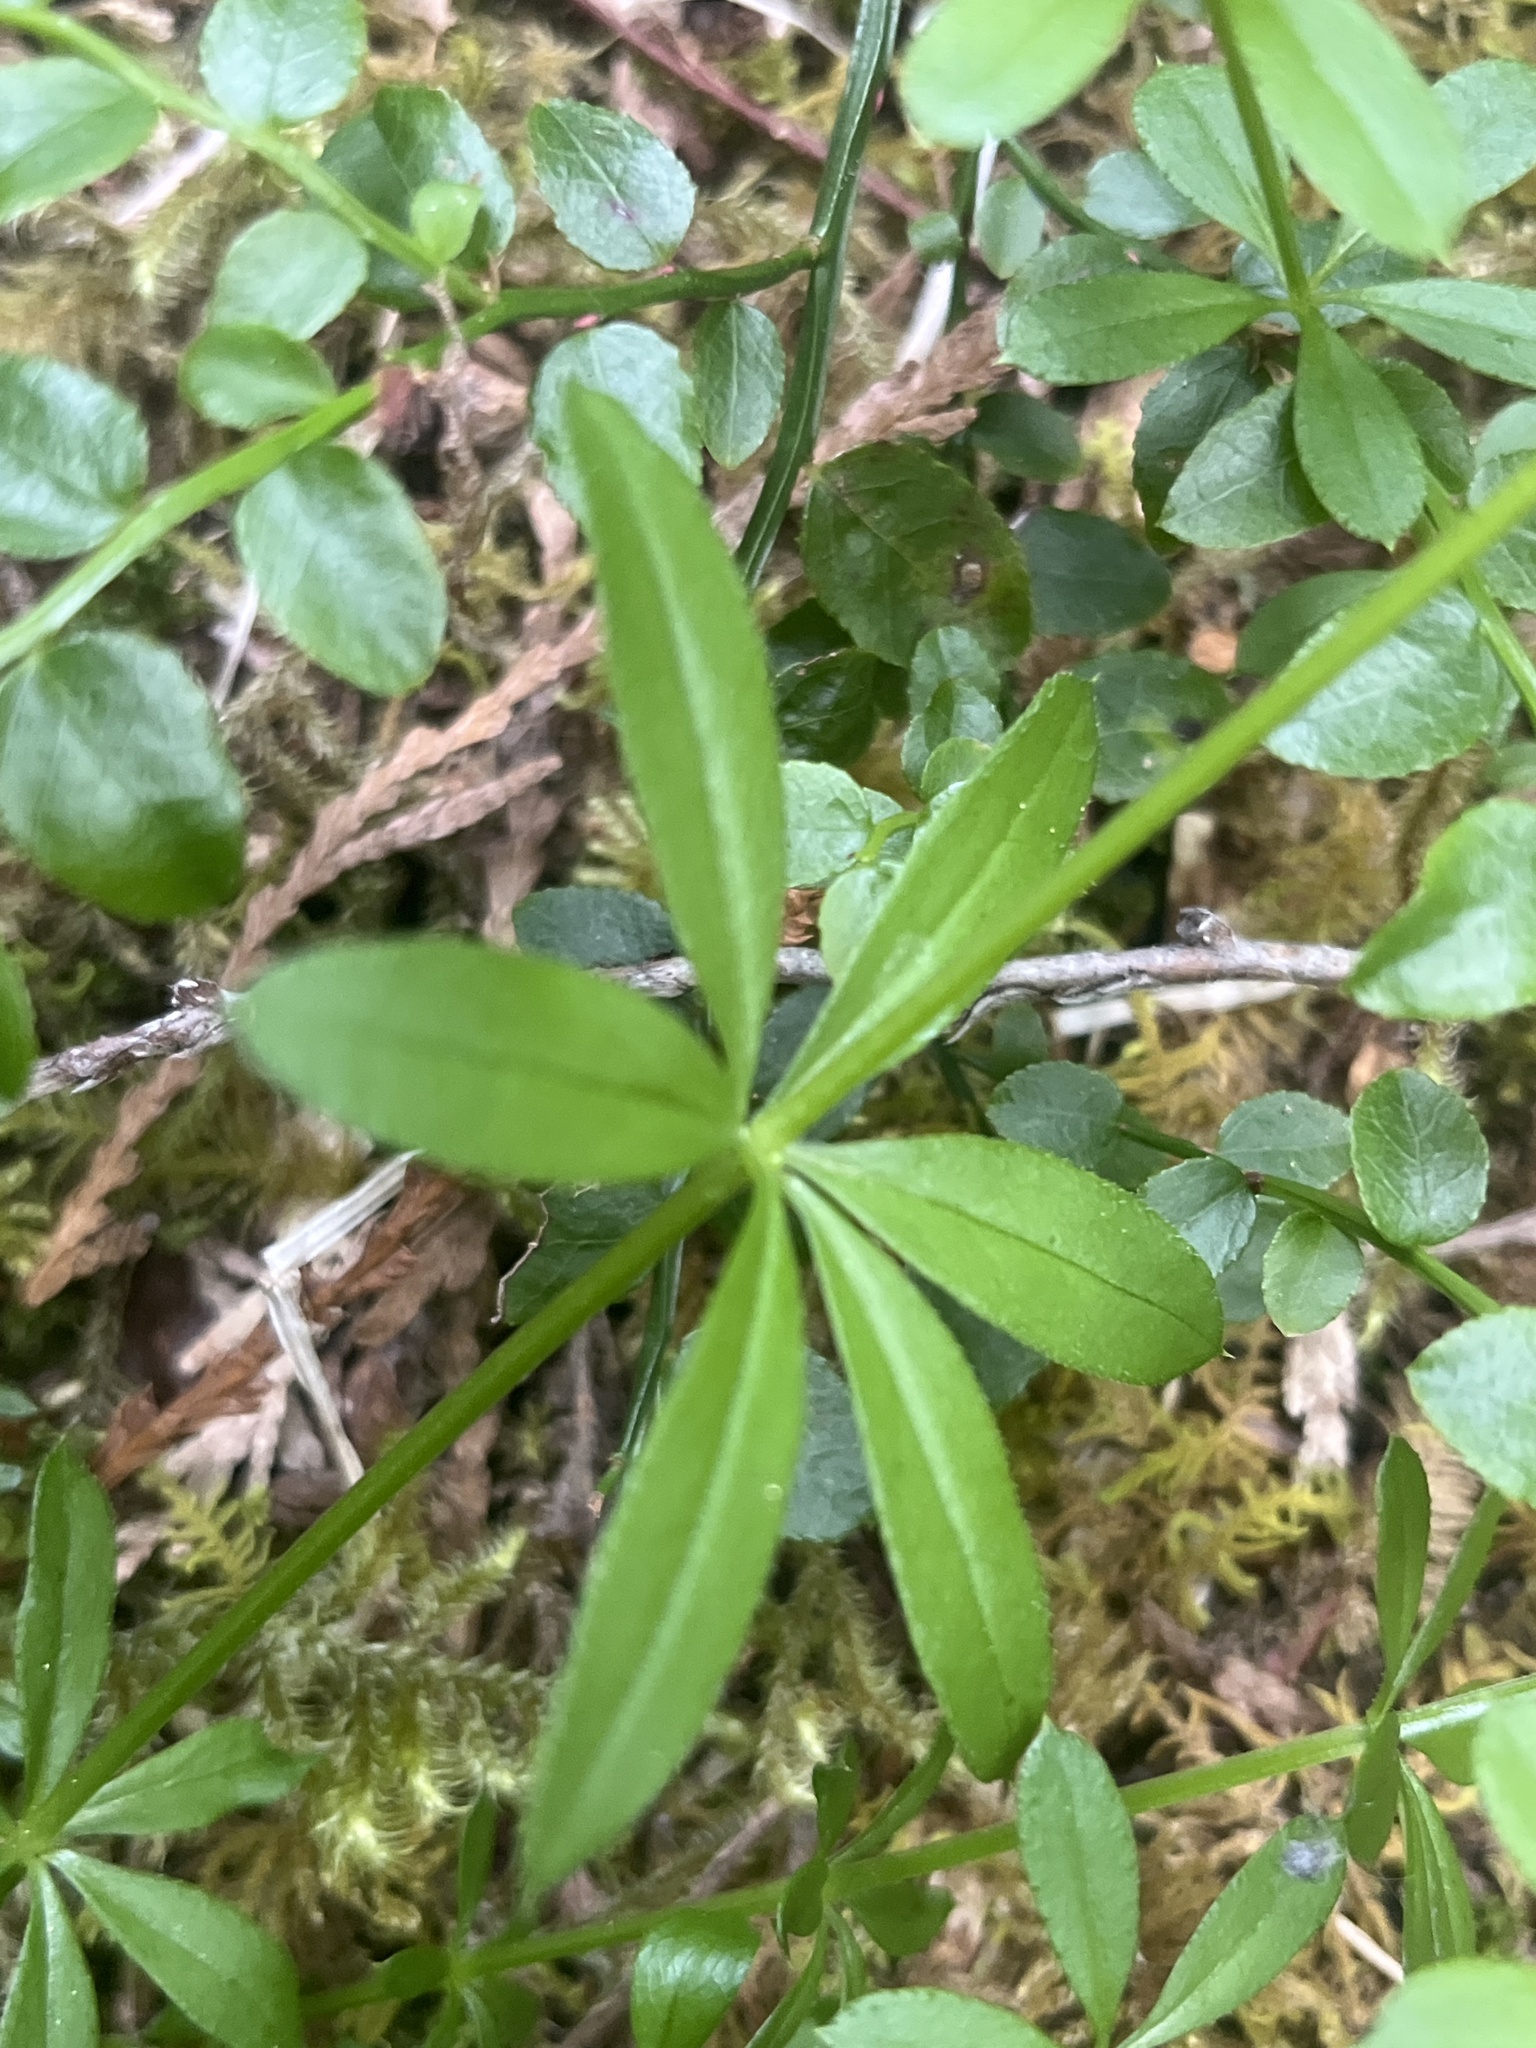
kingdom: Plantae
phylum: Tracheophyta
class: Magnoliopsida
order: Gentianales
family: Rubiaceae
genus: Galium
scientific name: Galium triflorum
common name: Fragrant bedstraw
